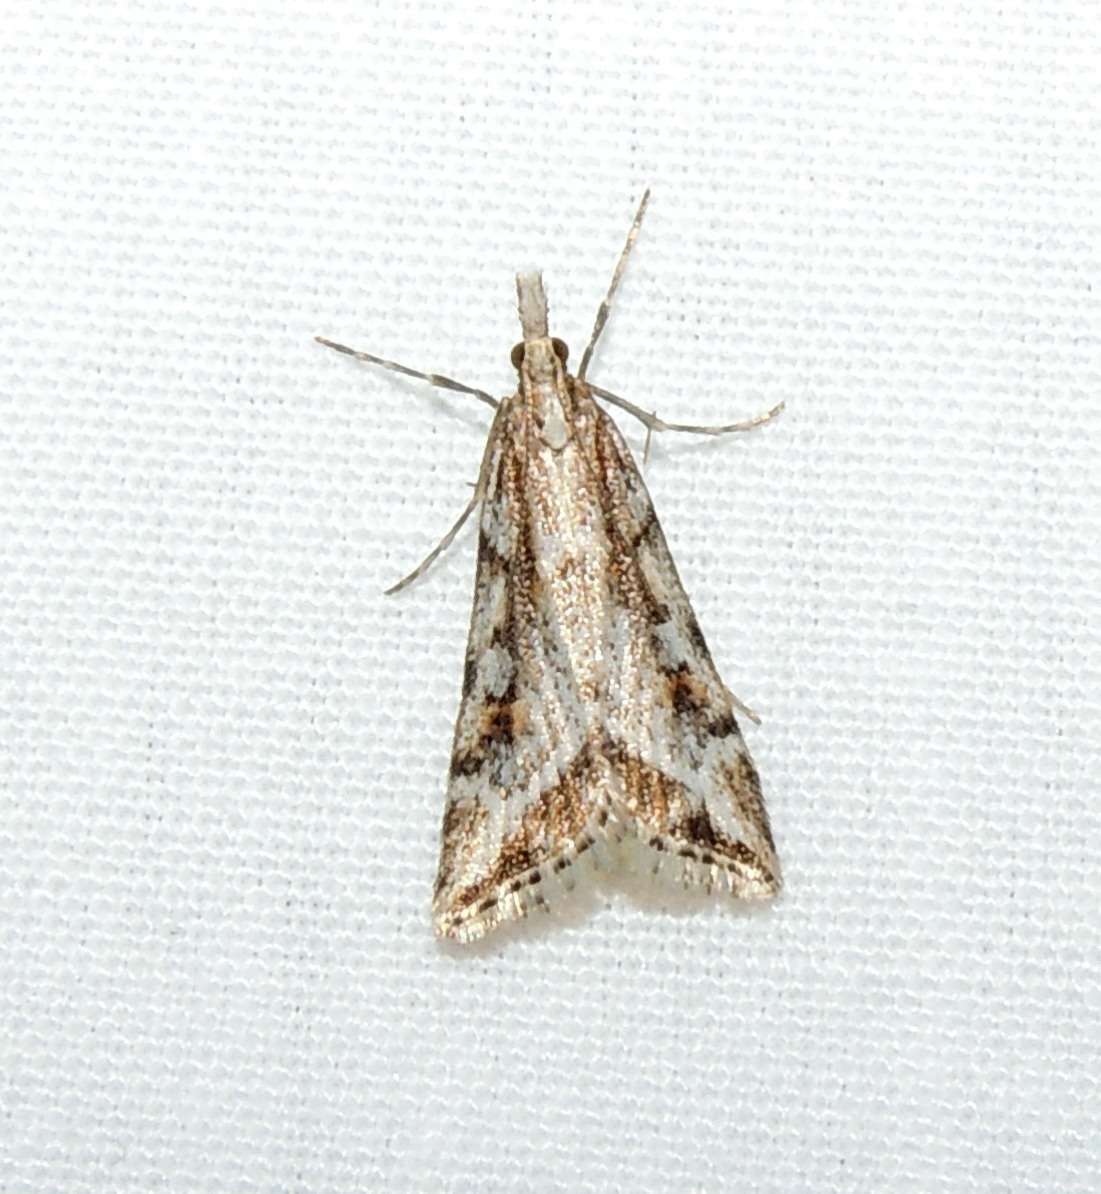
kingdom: Animalia
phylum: Arthropoda
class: Insecta
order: Lepidoptera
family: Crambidae
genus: Scoparia
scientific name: Scoparia ithyntis
